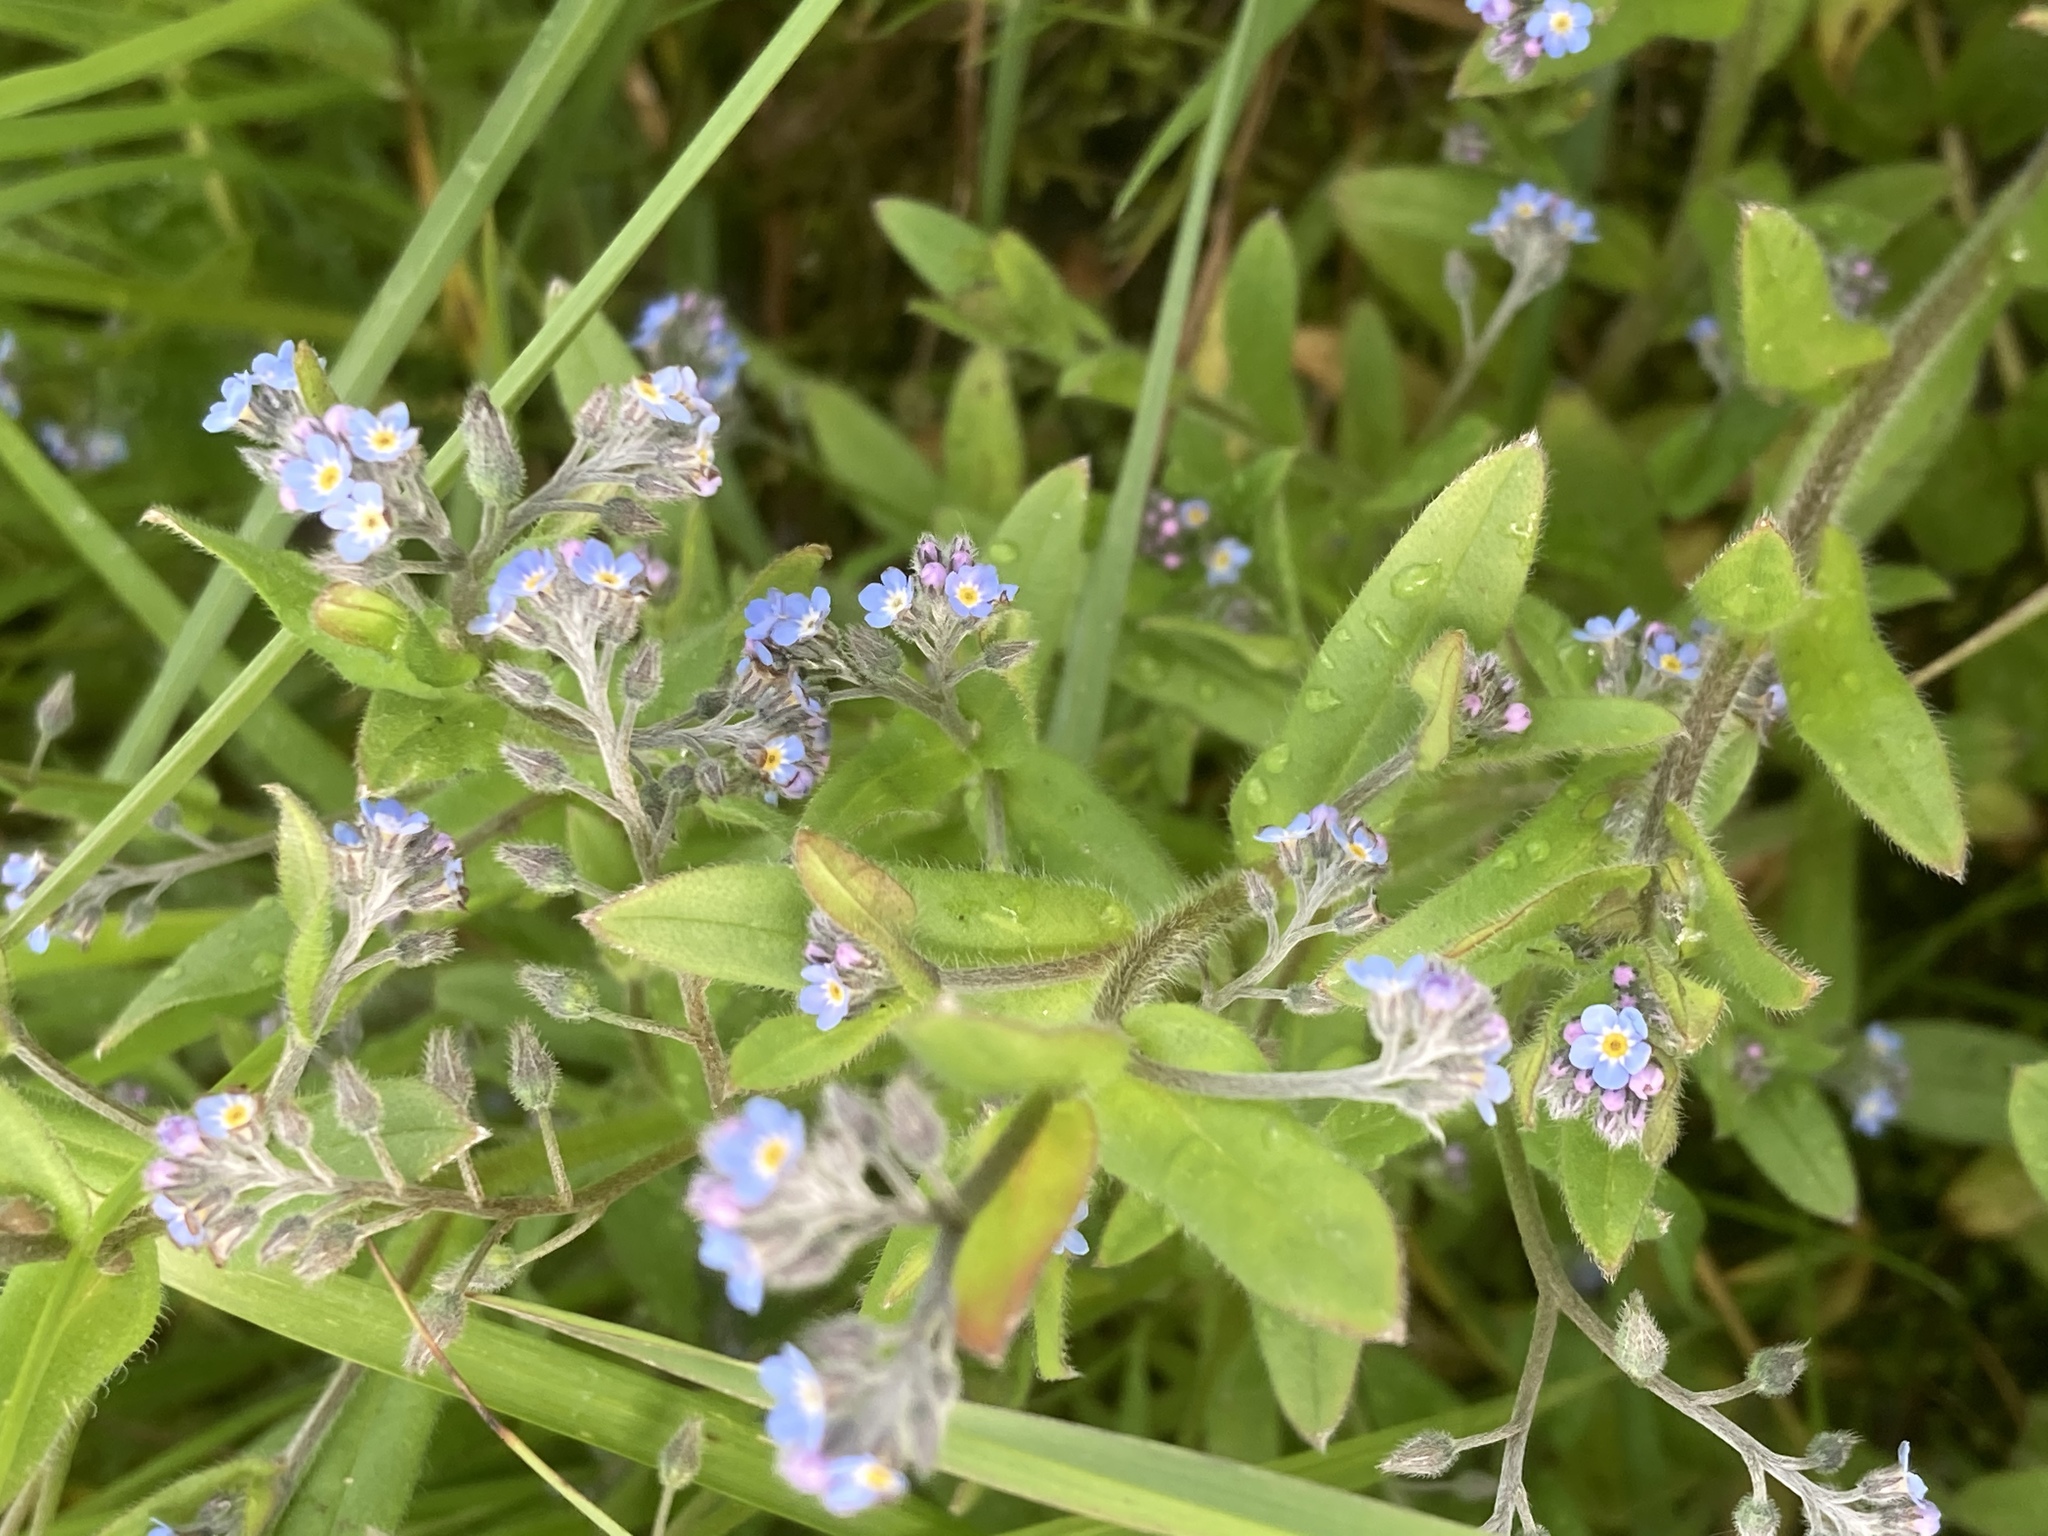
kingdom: Plantae
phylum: Tracheophyta
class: Magnoliopsida
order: Boraginales
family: Boraginaceae
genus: Myosotis
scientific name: Myosotis arvensis
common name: Field forget-me-not
